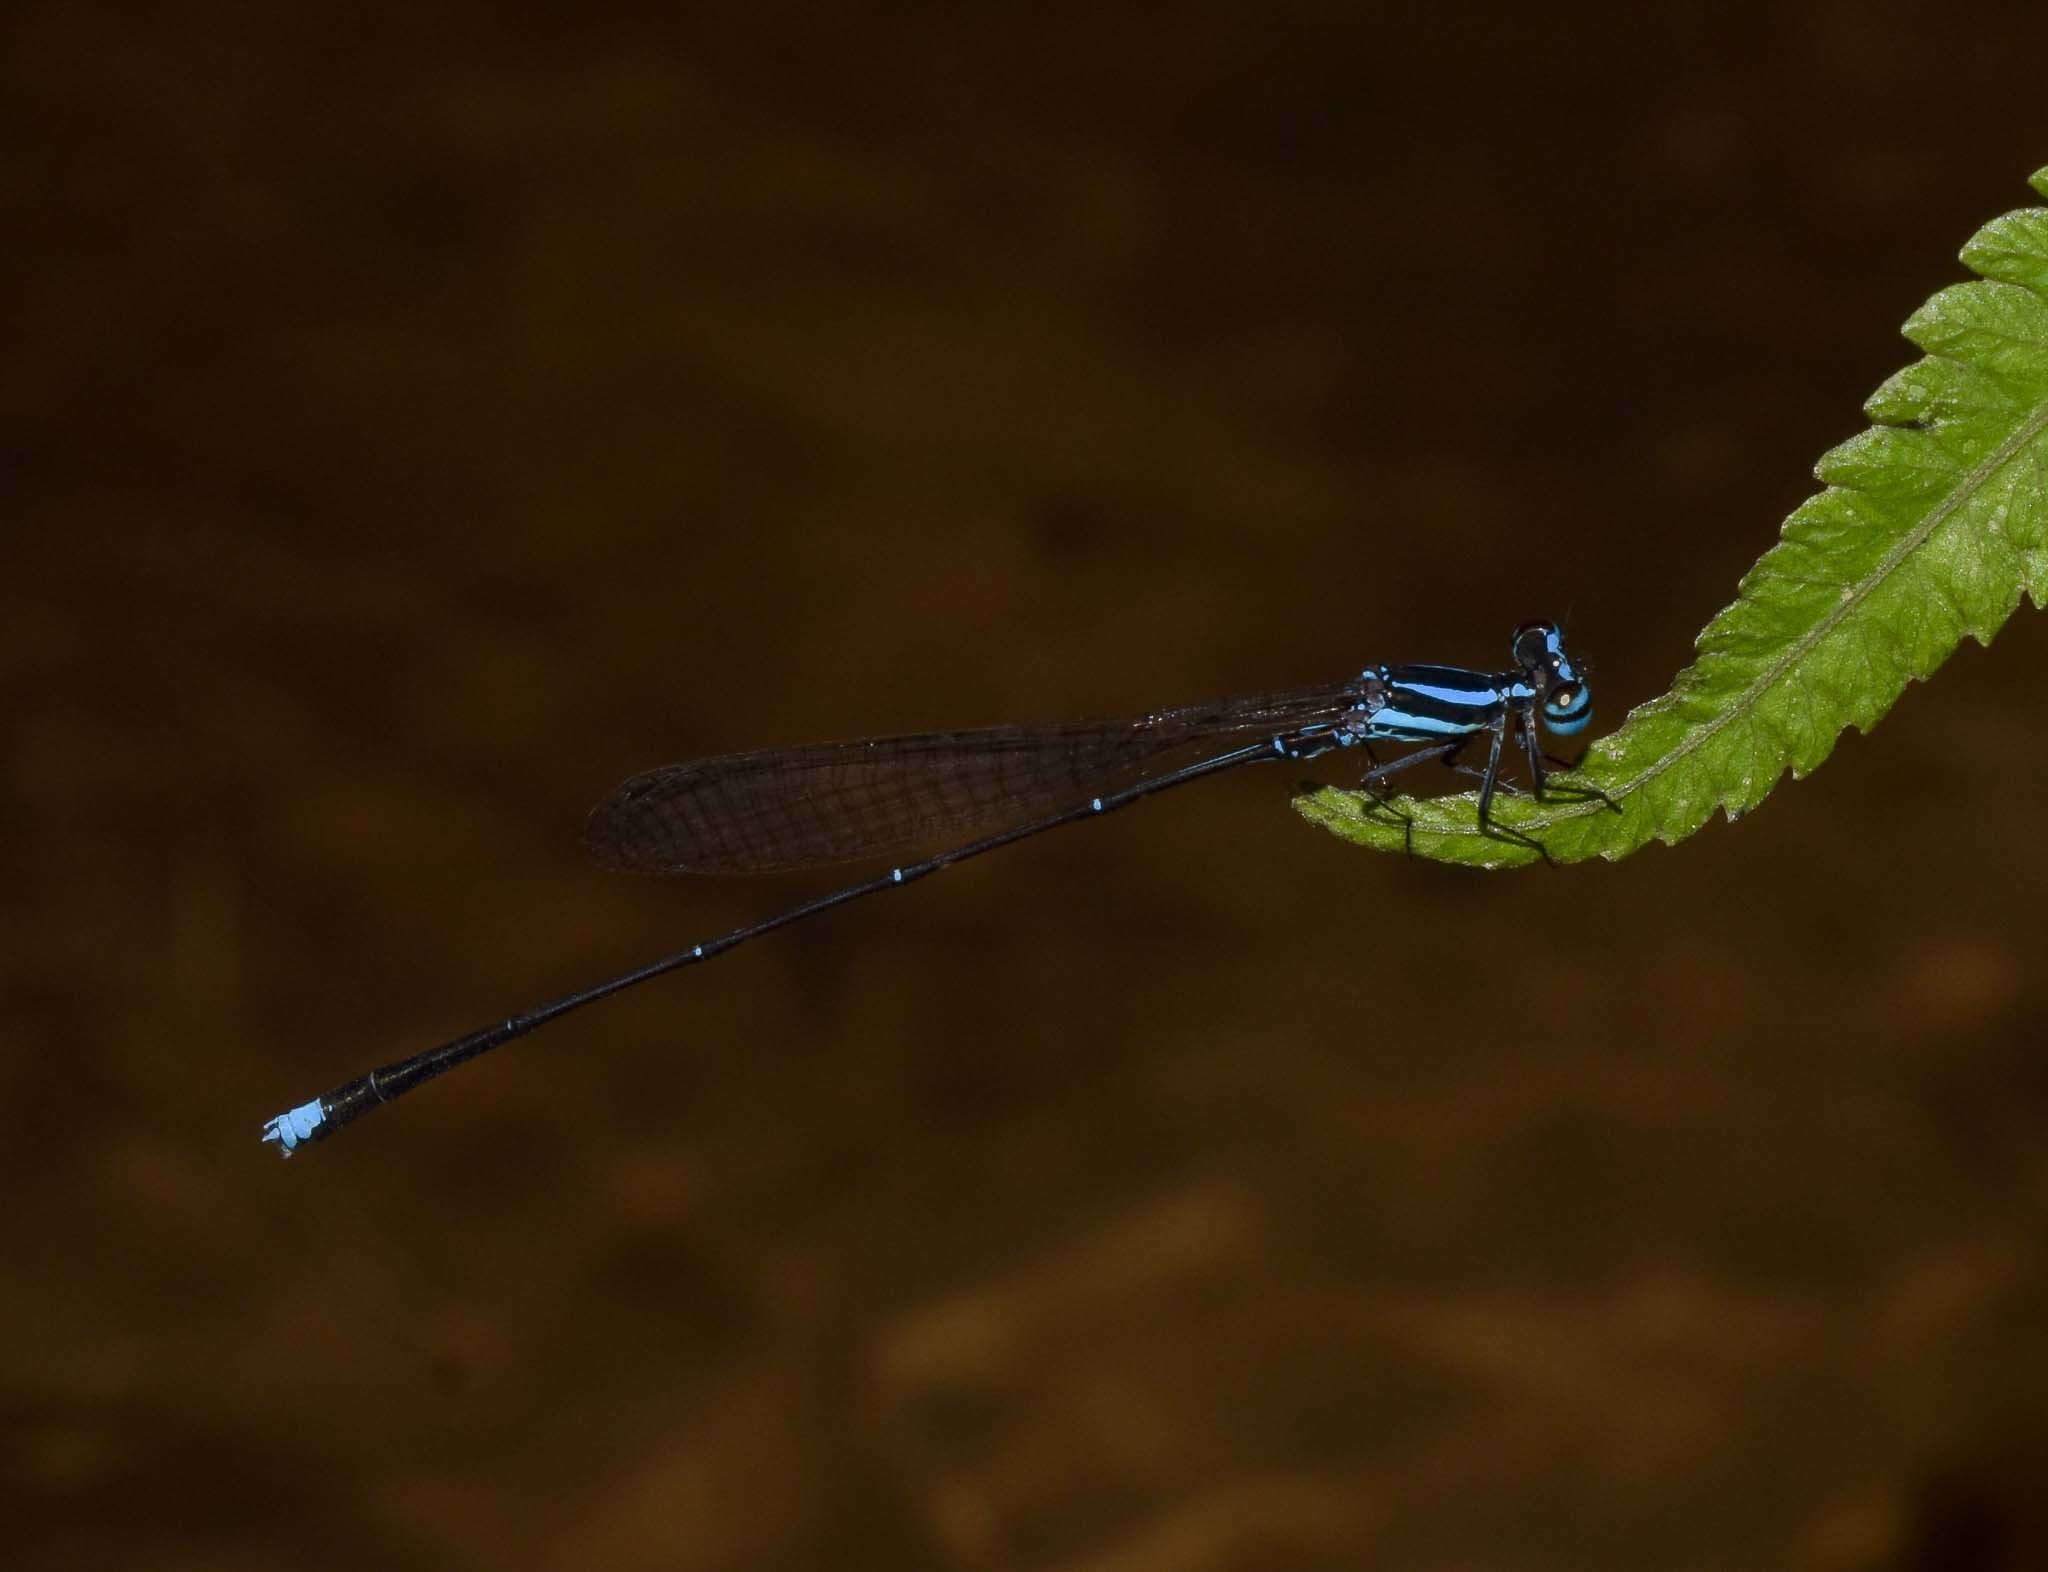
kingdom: Animalia
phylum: Arthropoda
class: Insecta
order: Odonata
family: Platycnemididae
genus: Elattoneura
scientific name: Elattoneura campioni
